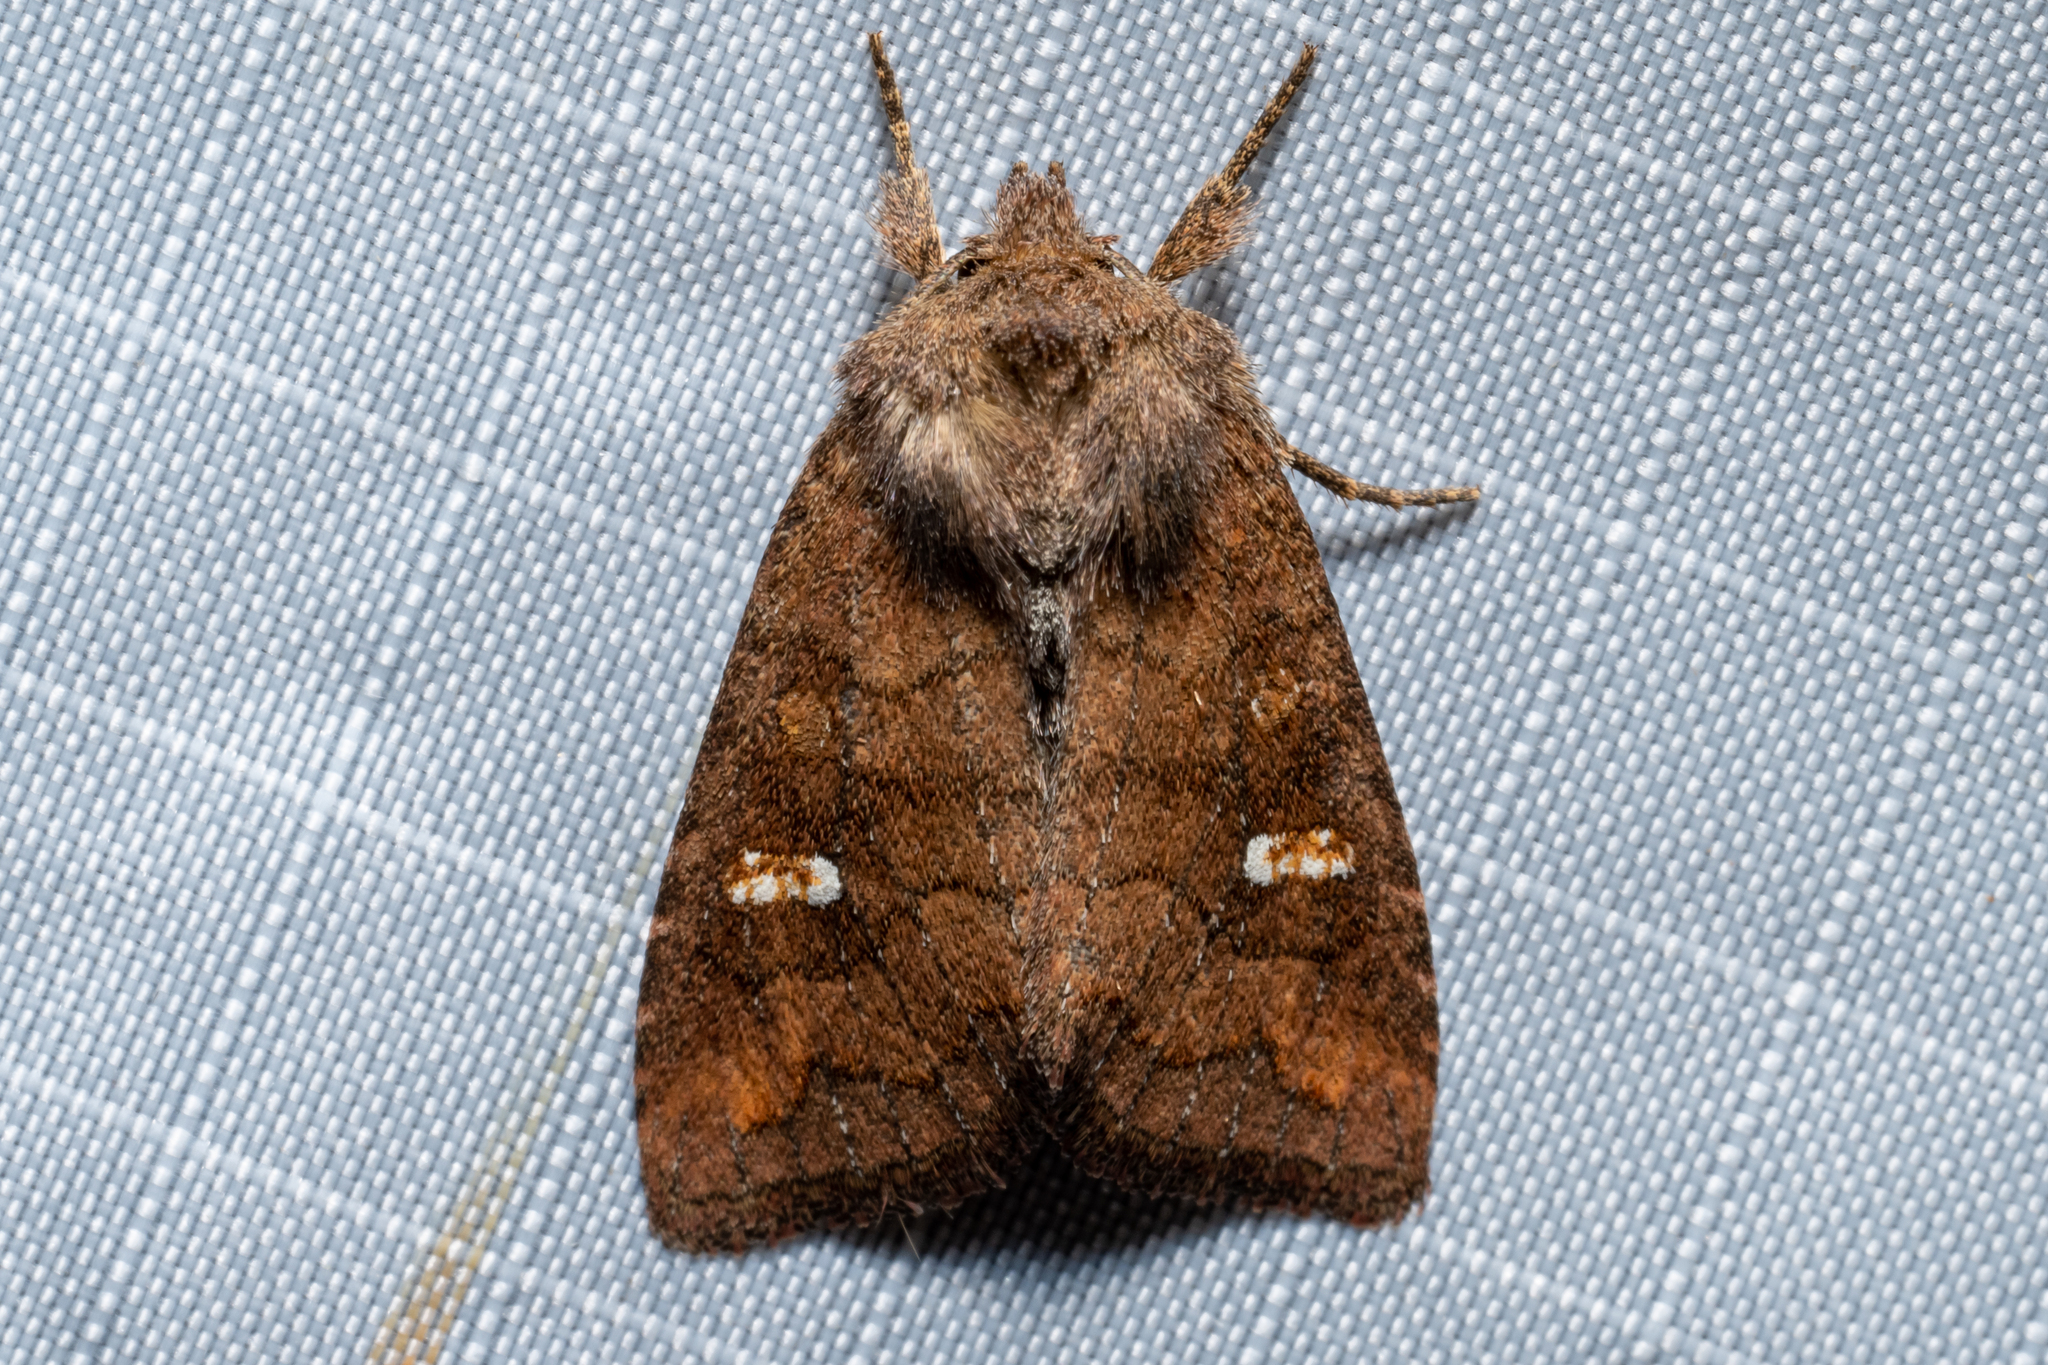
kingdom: Animalia
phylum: Arthropoda
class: Insecta
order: Lepidoptera
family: Noctuidae
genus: Tricholita
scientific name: Tricholita signata
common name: Signate quaker
